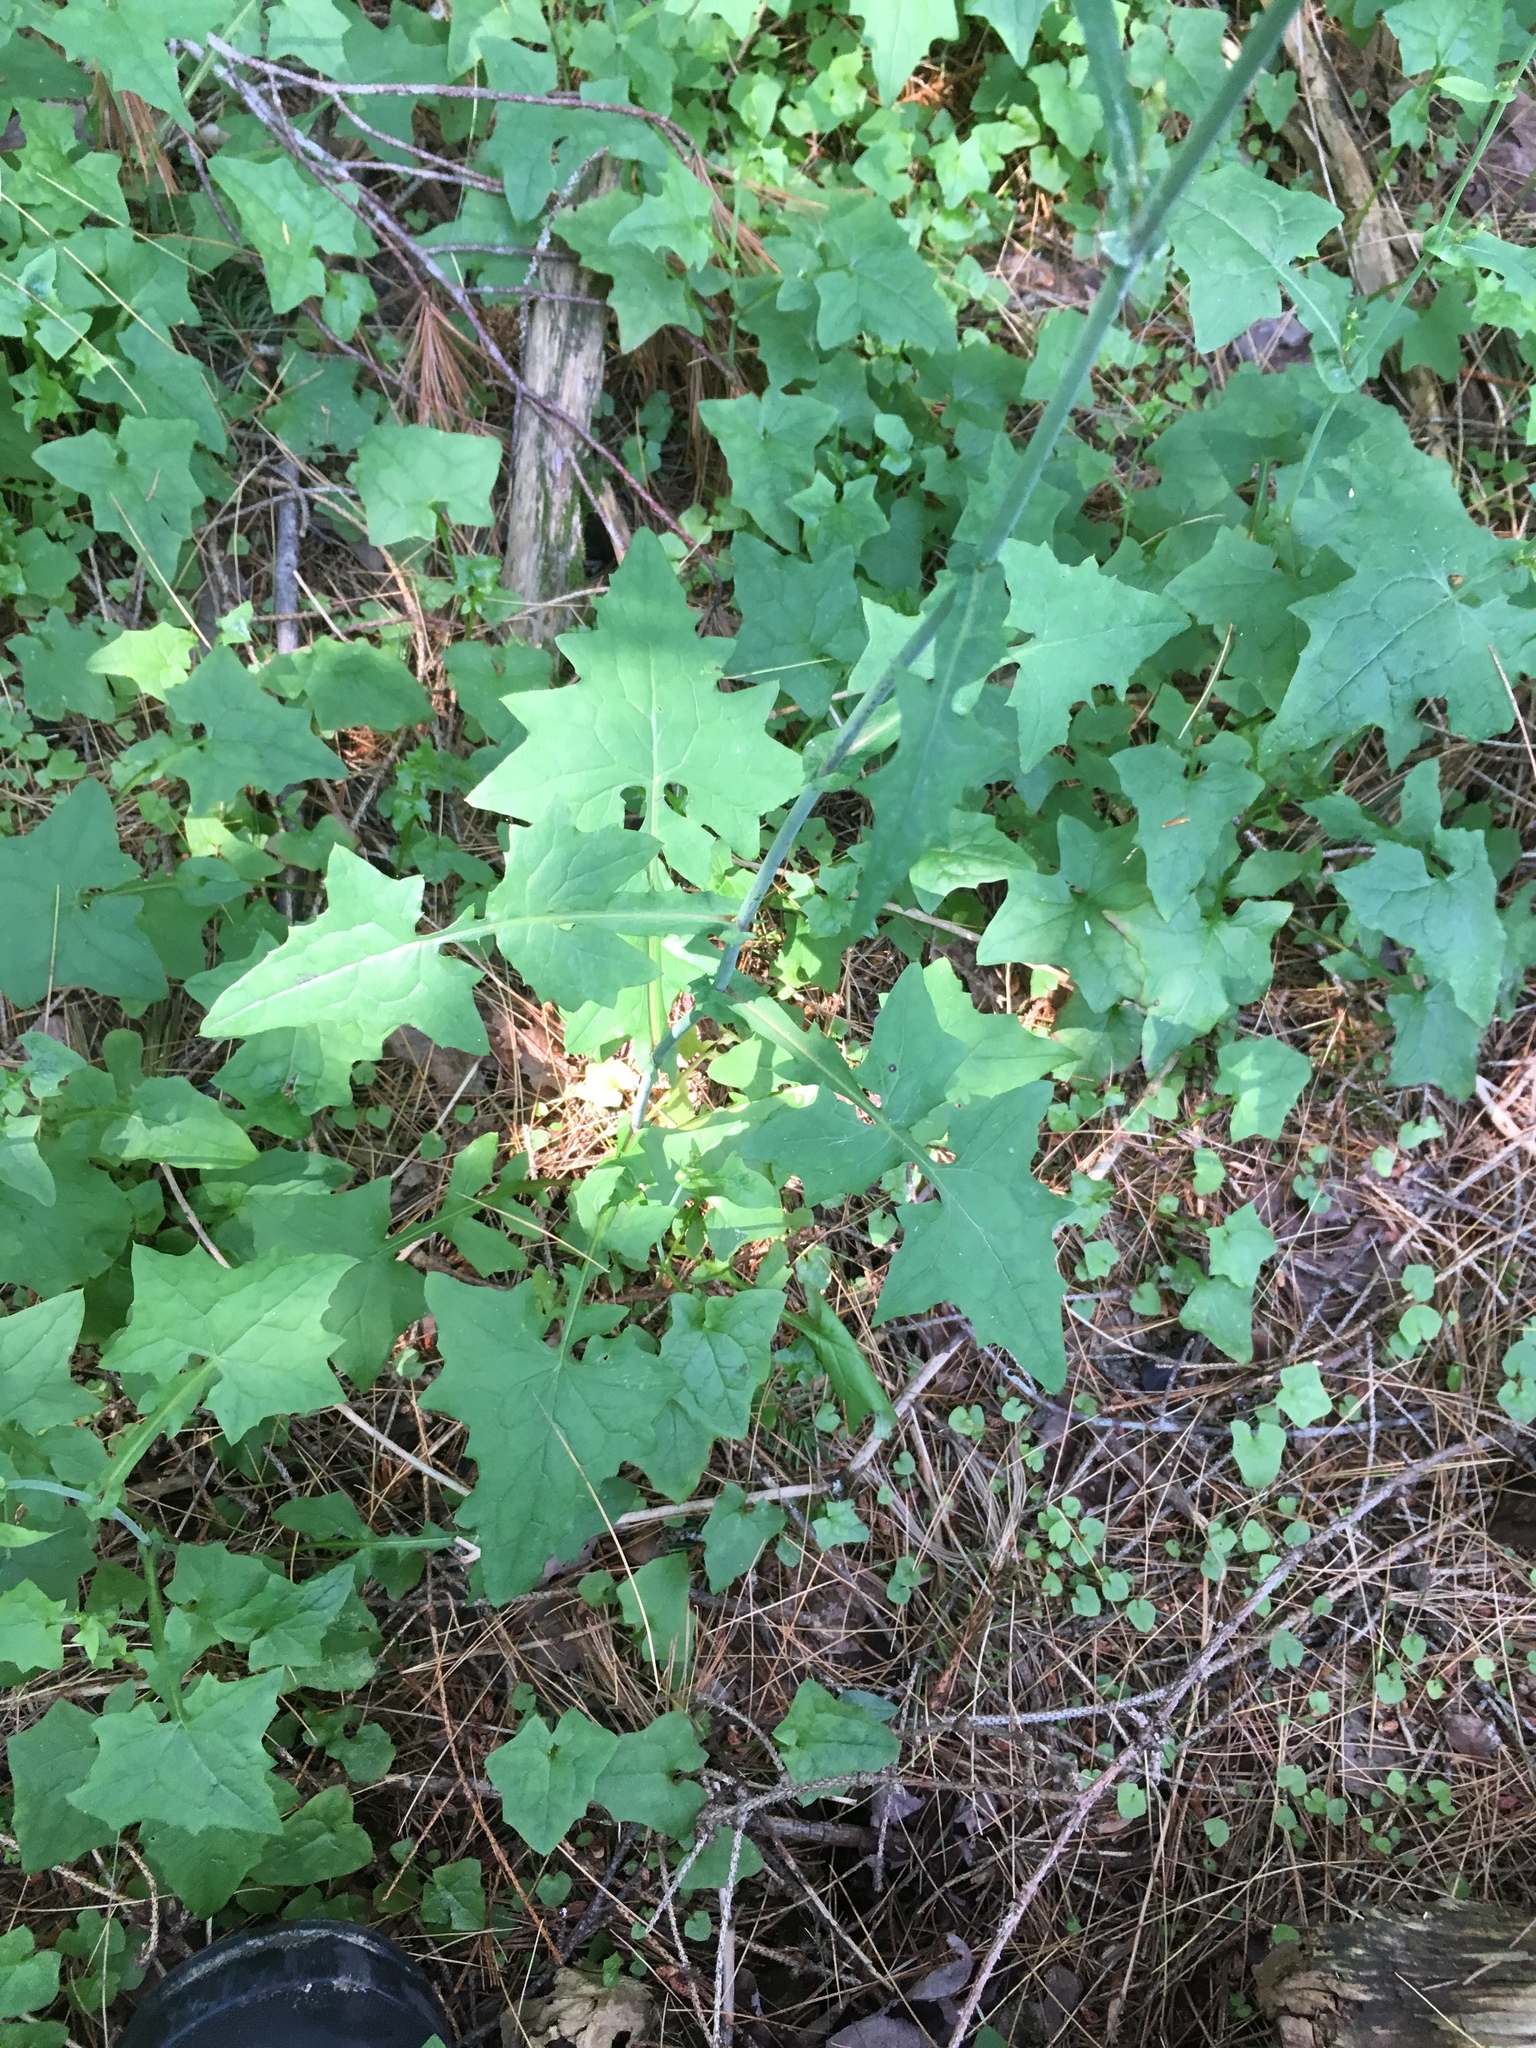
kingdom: Plantae
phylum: Tracheophyta
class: Magnoliopsida
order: Asterales
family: Asteraceae
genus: Mycelis
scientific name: Mycelis muralis
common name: Wall lettuce
